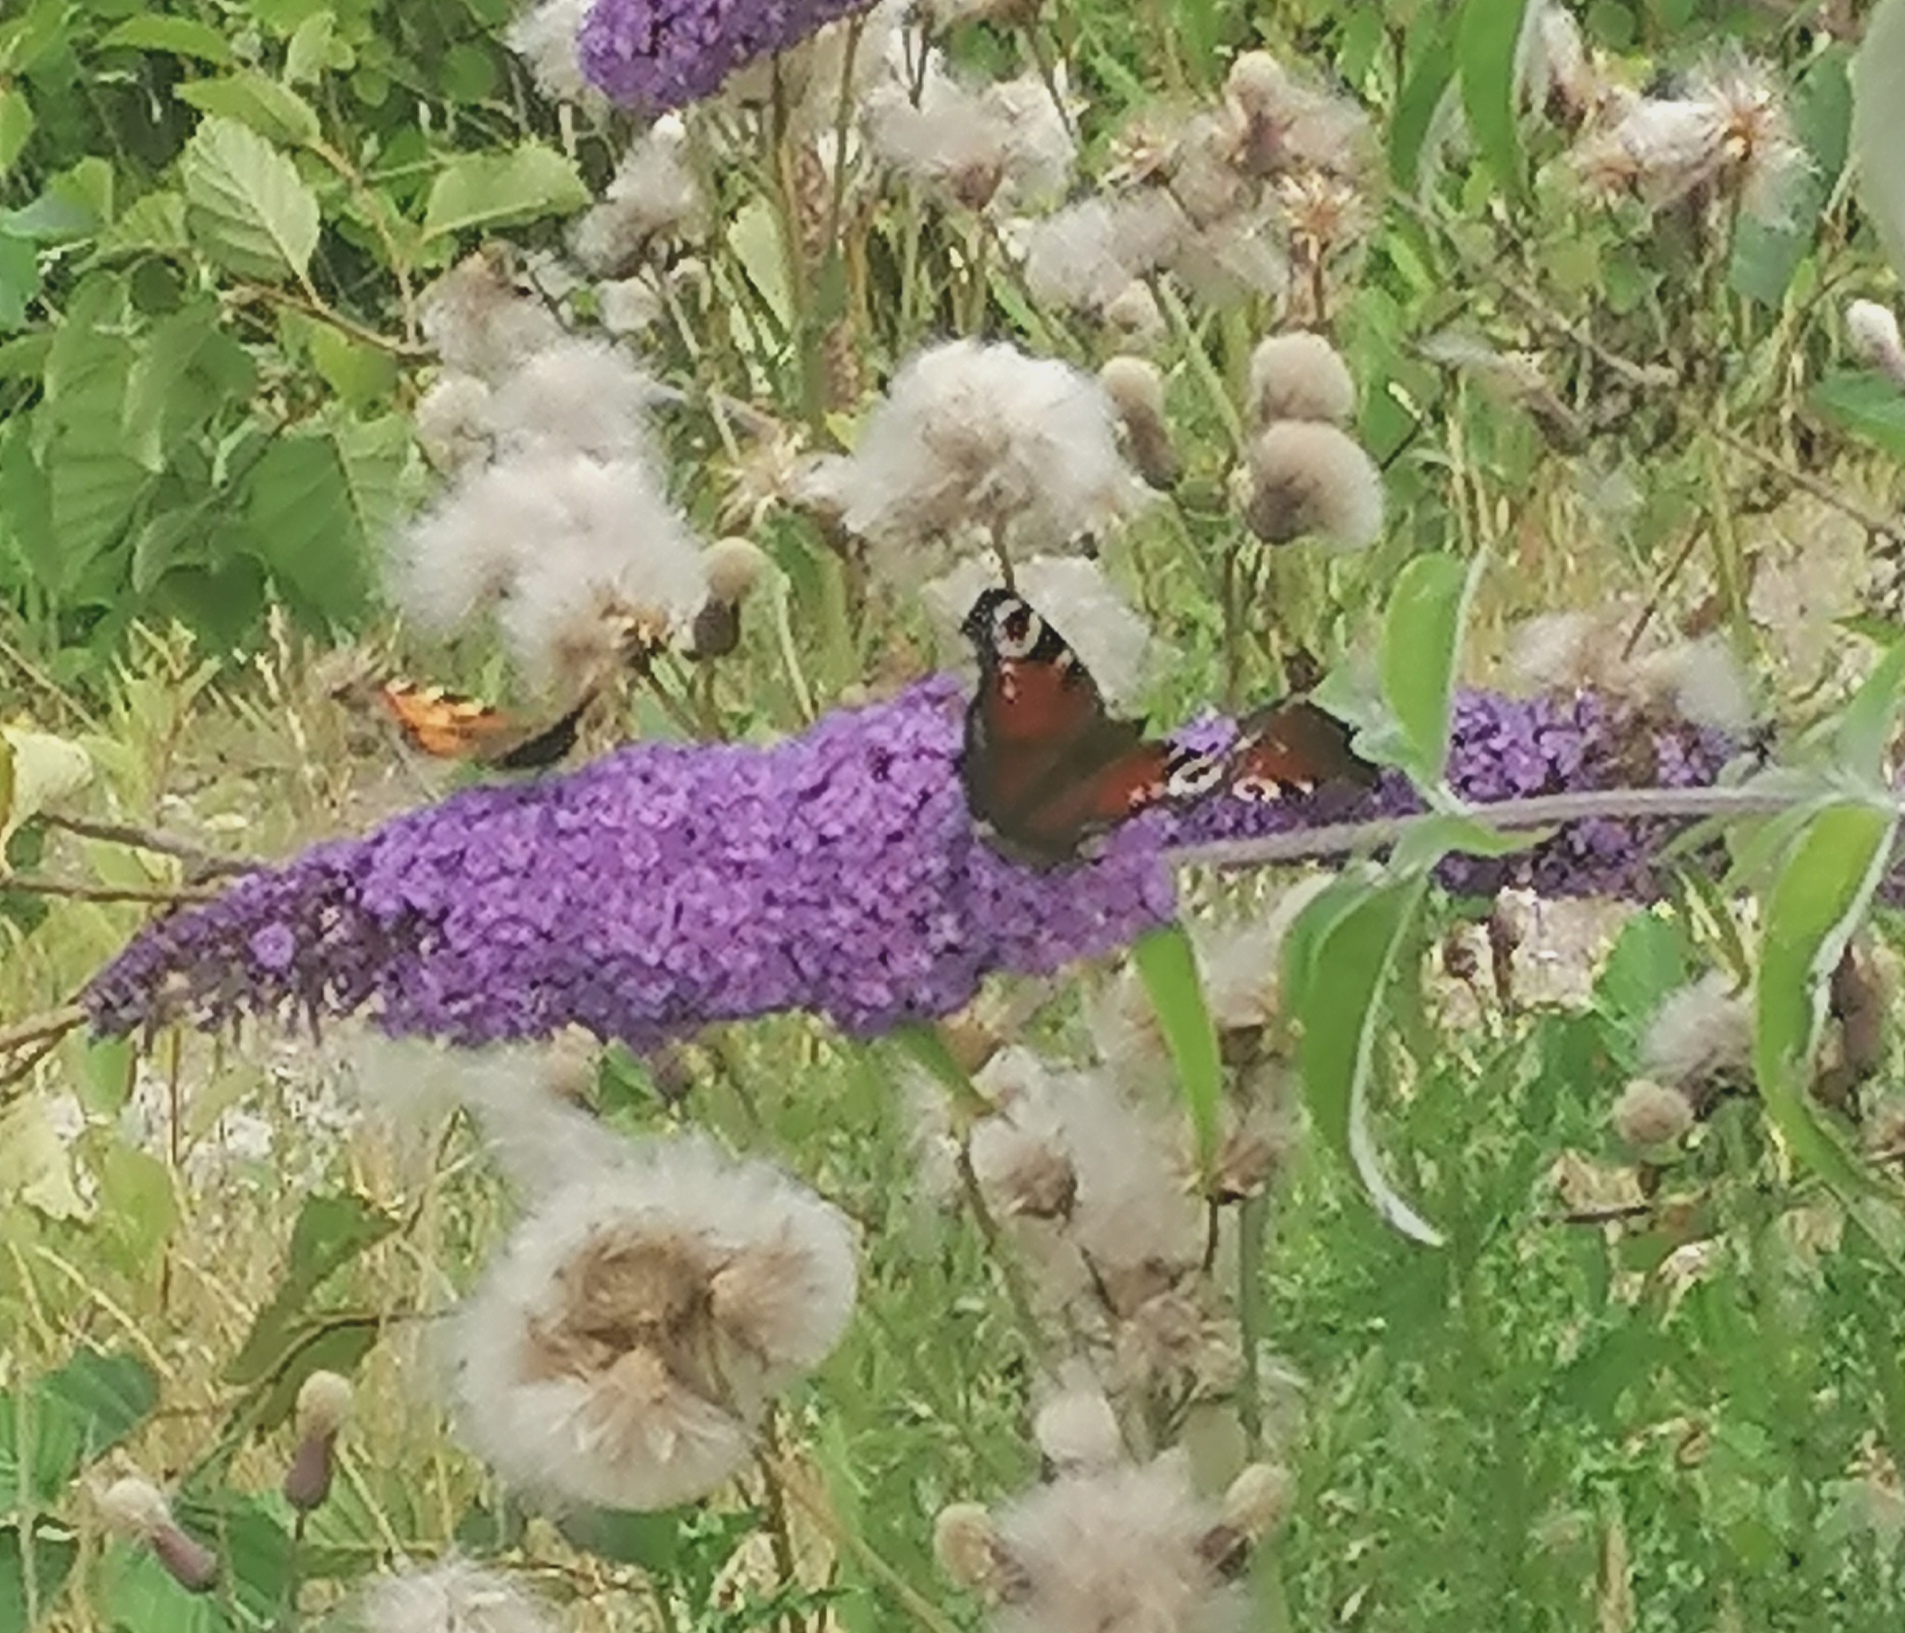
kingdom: Animalia
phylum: Arthropoda
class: Insecta
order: Lepidoptera
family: Nymphalidae
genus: Aglais
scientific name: Aglais io
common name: Peacock
